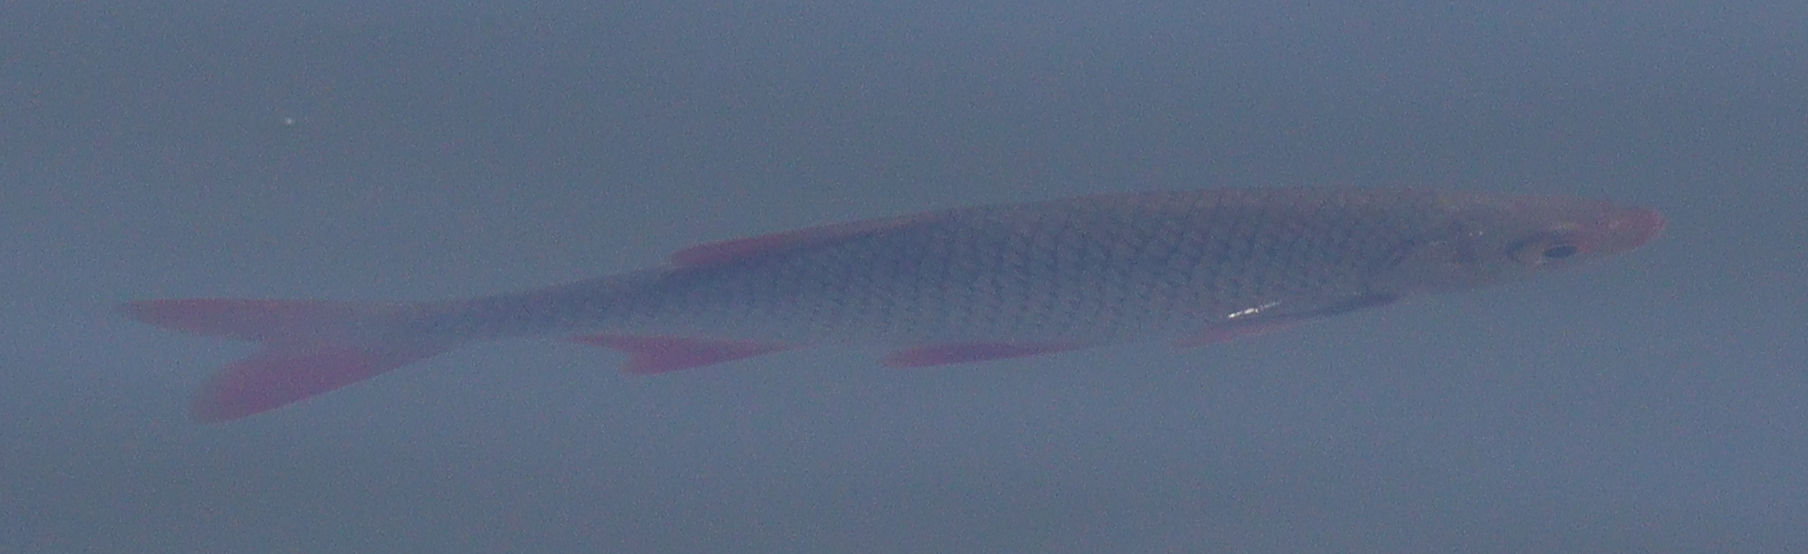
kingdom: Animalia
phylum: Chordata
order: Cypriniformes
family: Cyprinidae
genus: Scardinius
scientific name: Scardinius erythrophthalmus
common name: Rudd
